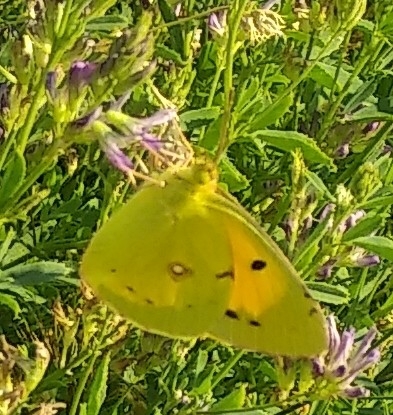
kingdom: Animalia
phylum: Arthropoda
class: Insecta
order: Lepidoptera
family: Pieridae
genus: Colias
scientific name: Colias croceus
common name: Clouded yellow
